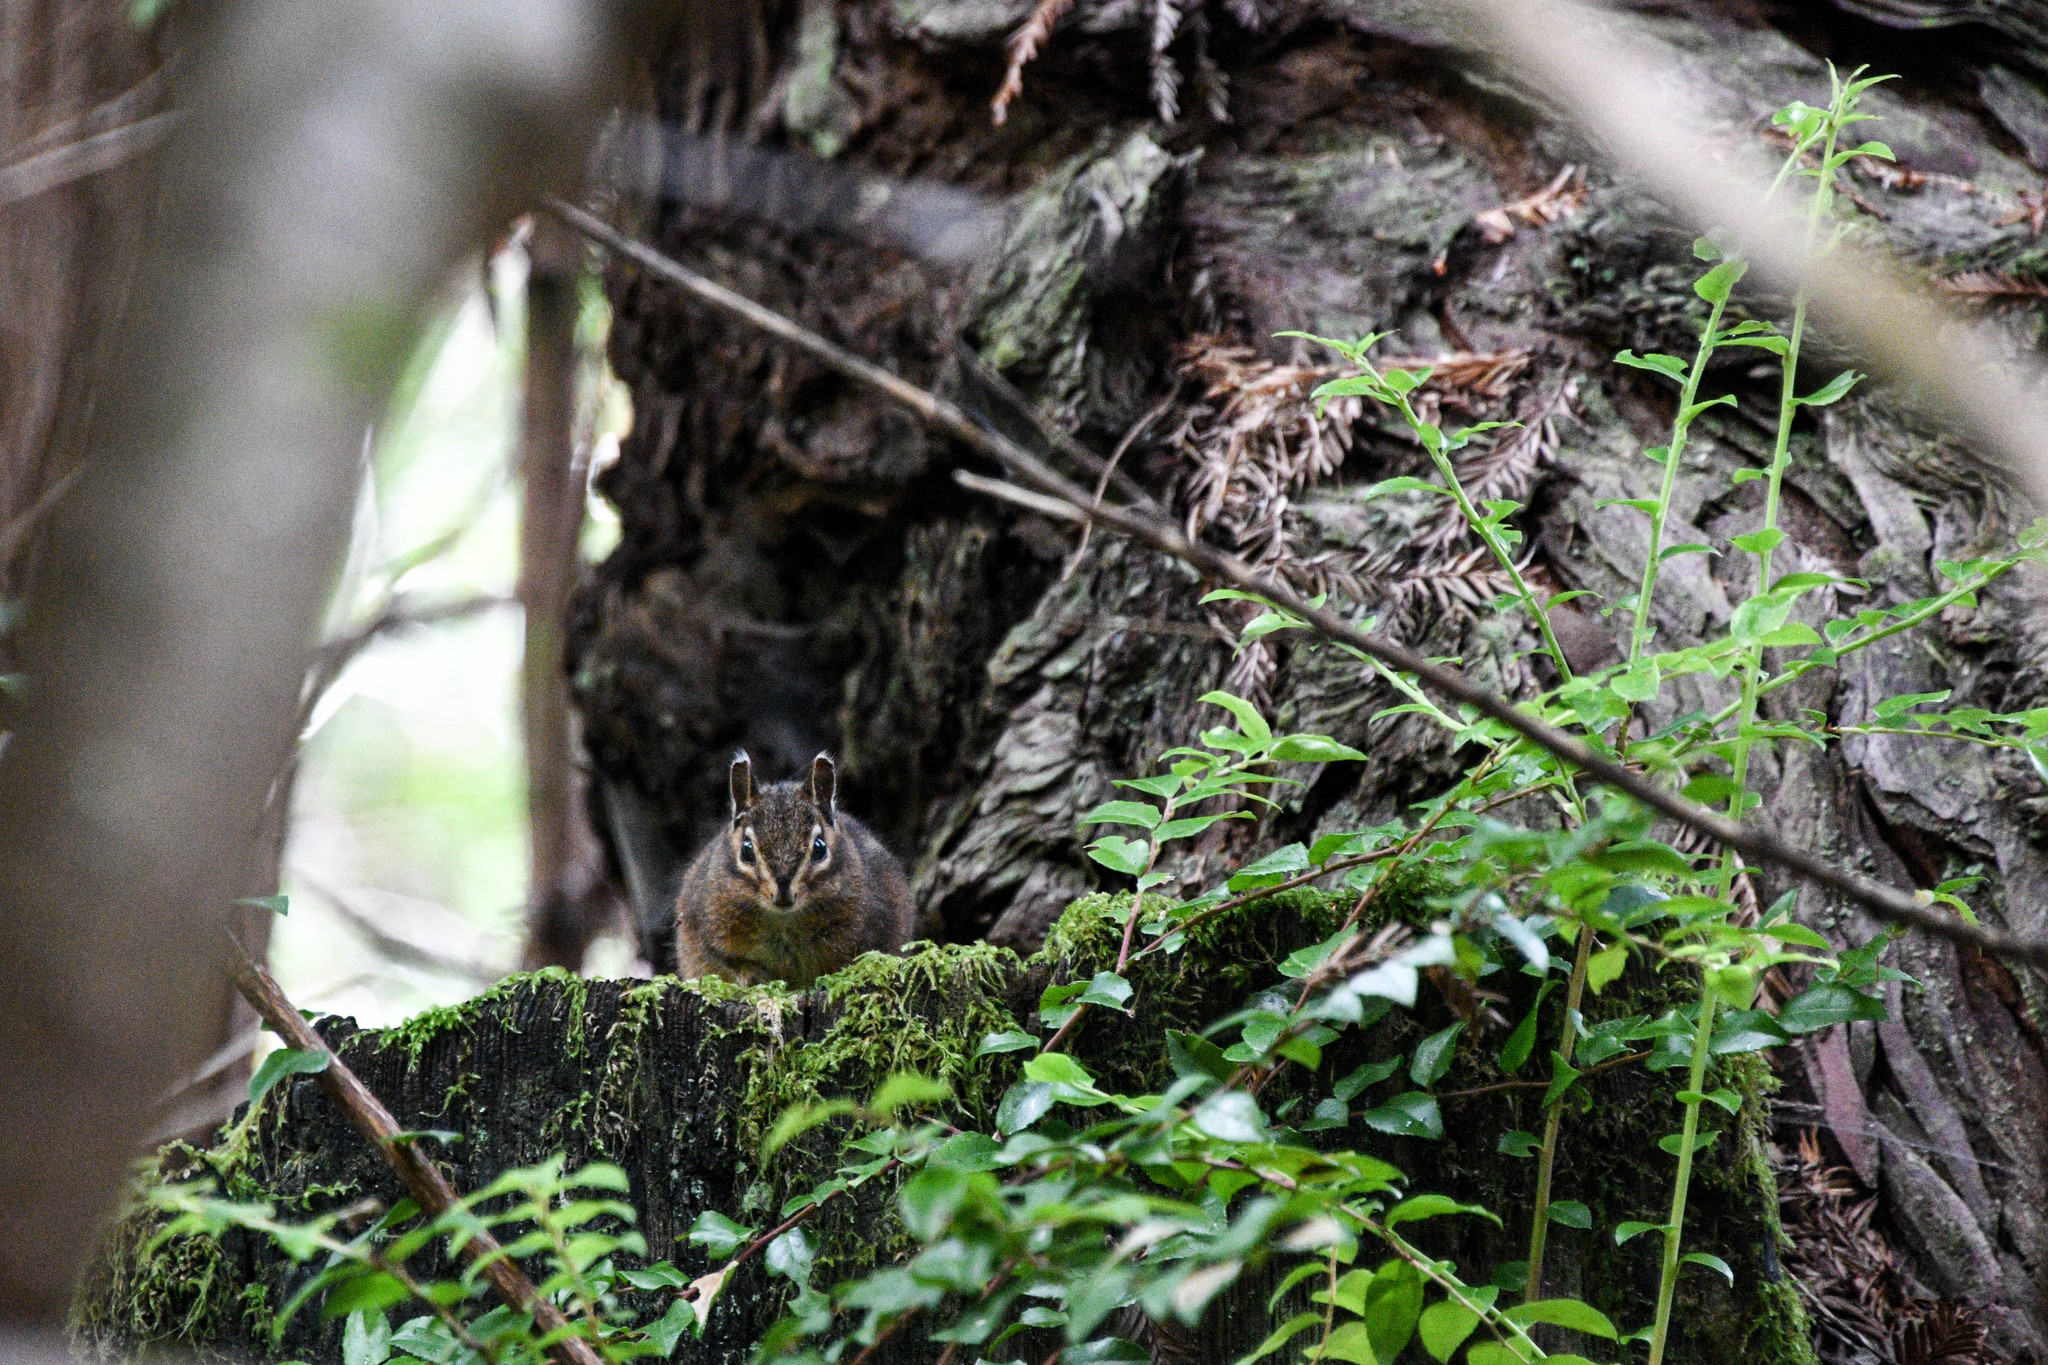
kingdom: Animalia
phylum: Chordata
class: Mammalia
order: Rodentia
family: Sciuridae
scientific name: Sciuridae
